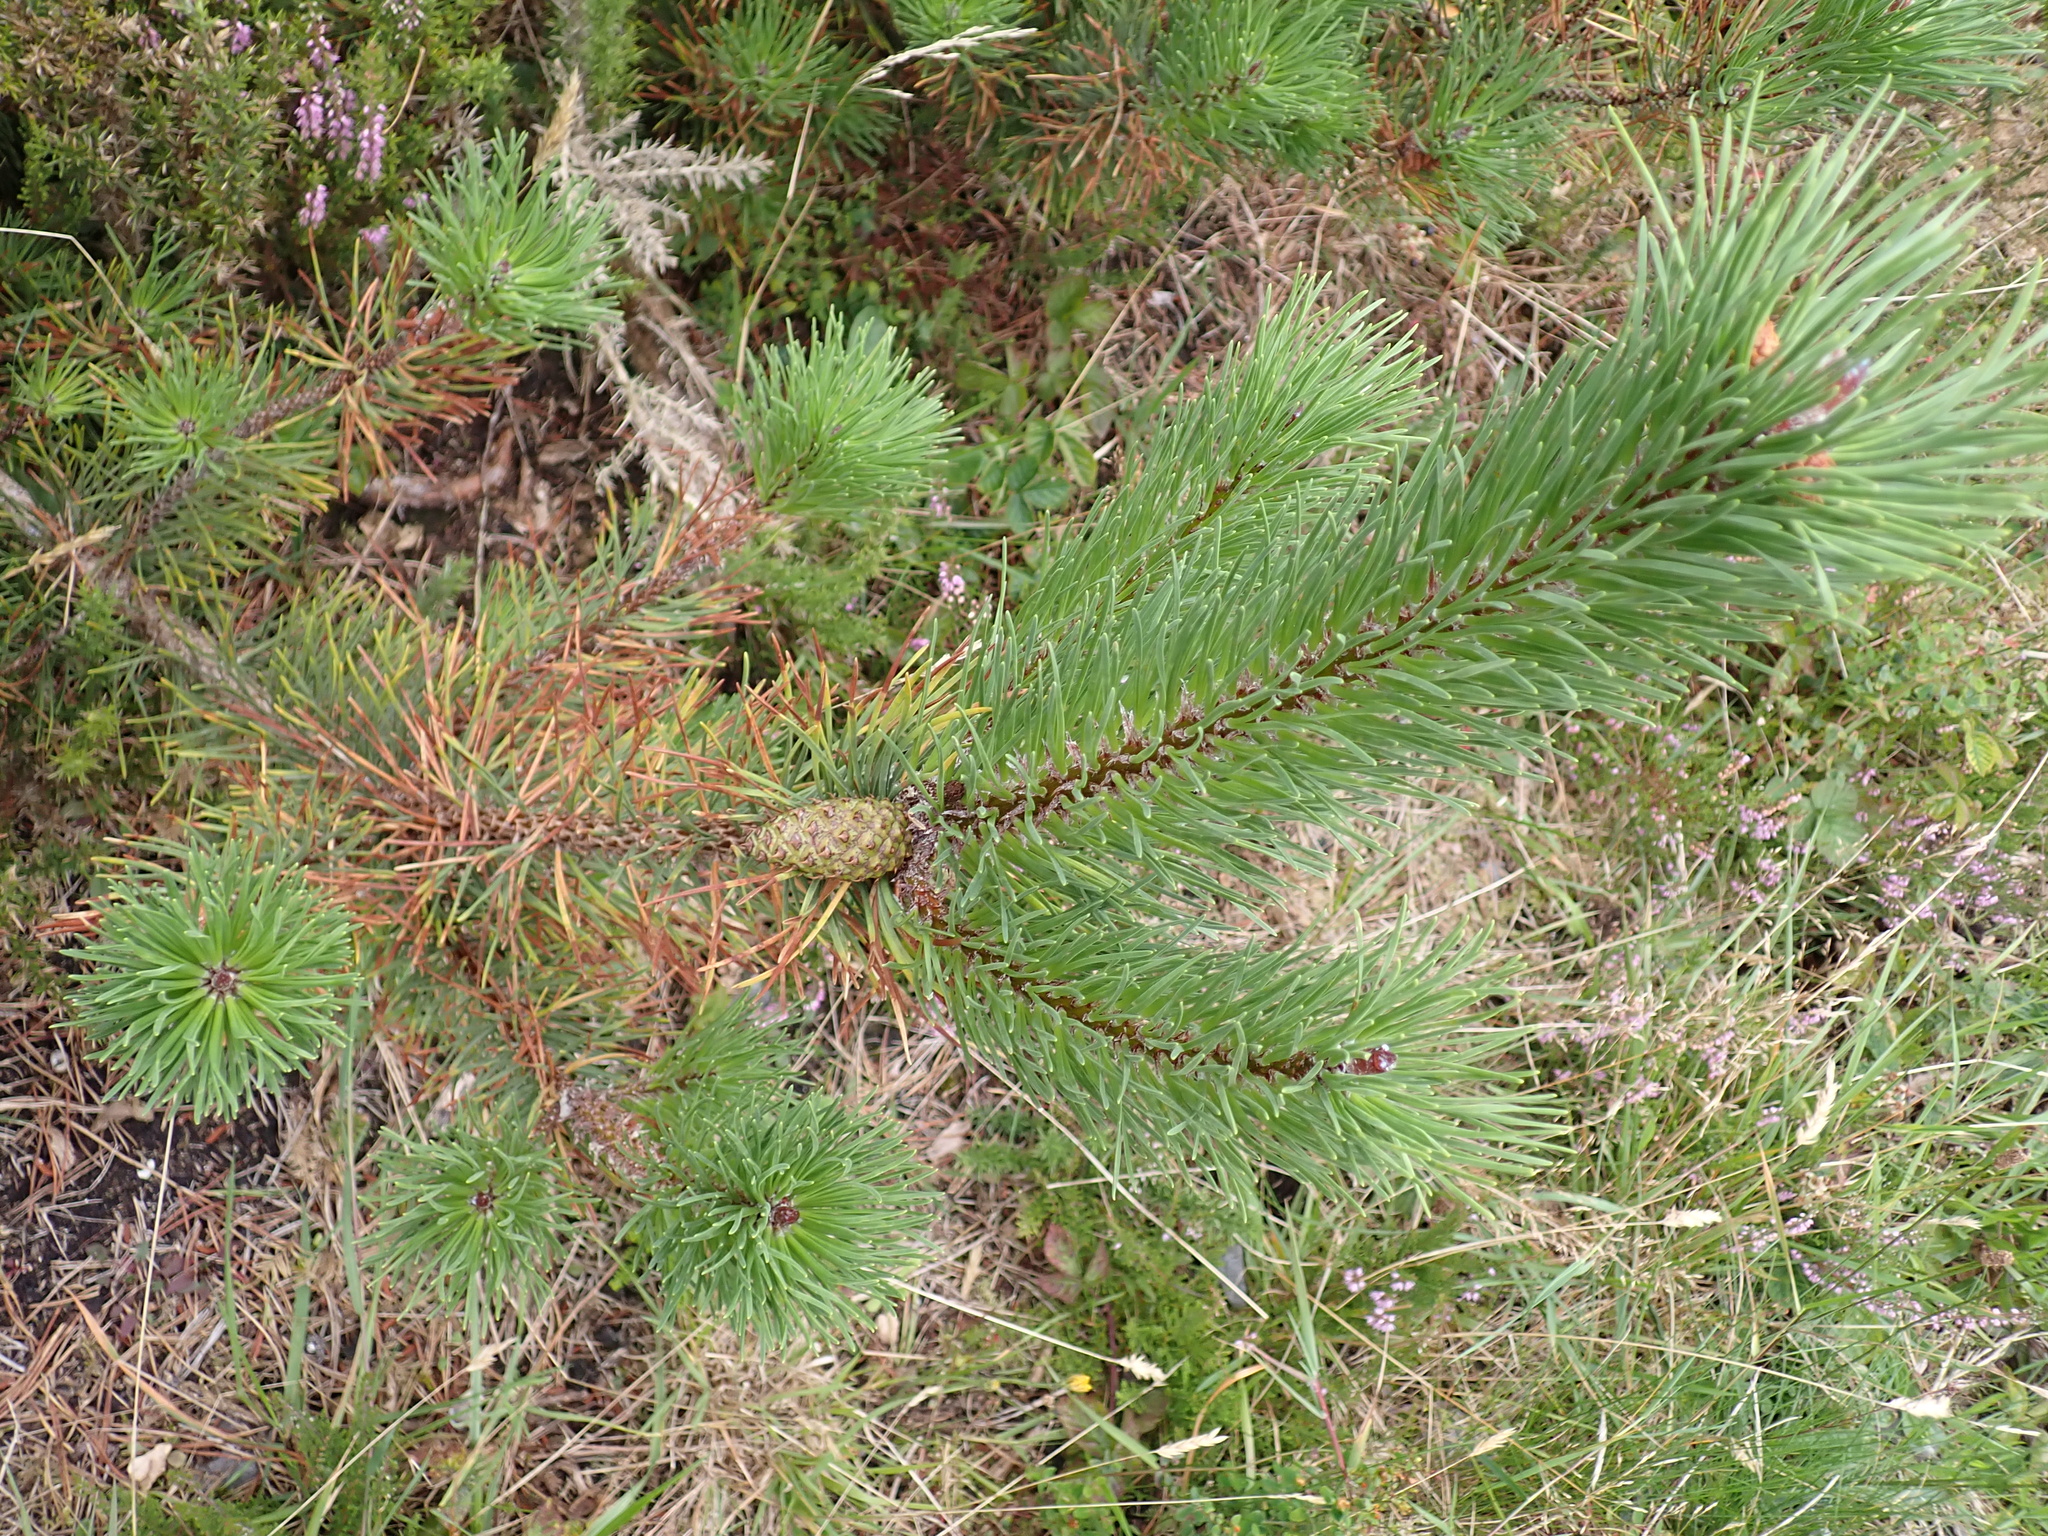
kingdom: Plantae
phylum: Tracheophyta
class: Pinopsida
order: Pinales
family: Pinaceae
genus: Pinus
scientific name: Pinus contorta
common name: Lodgepole pine
